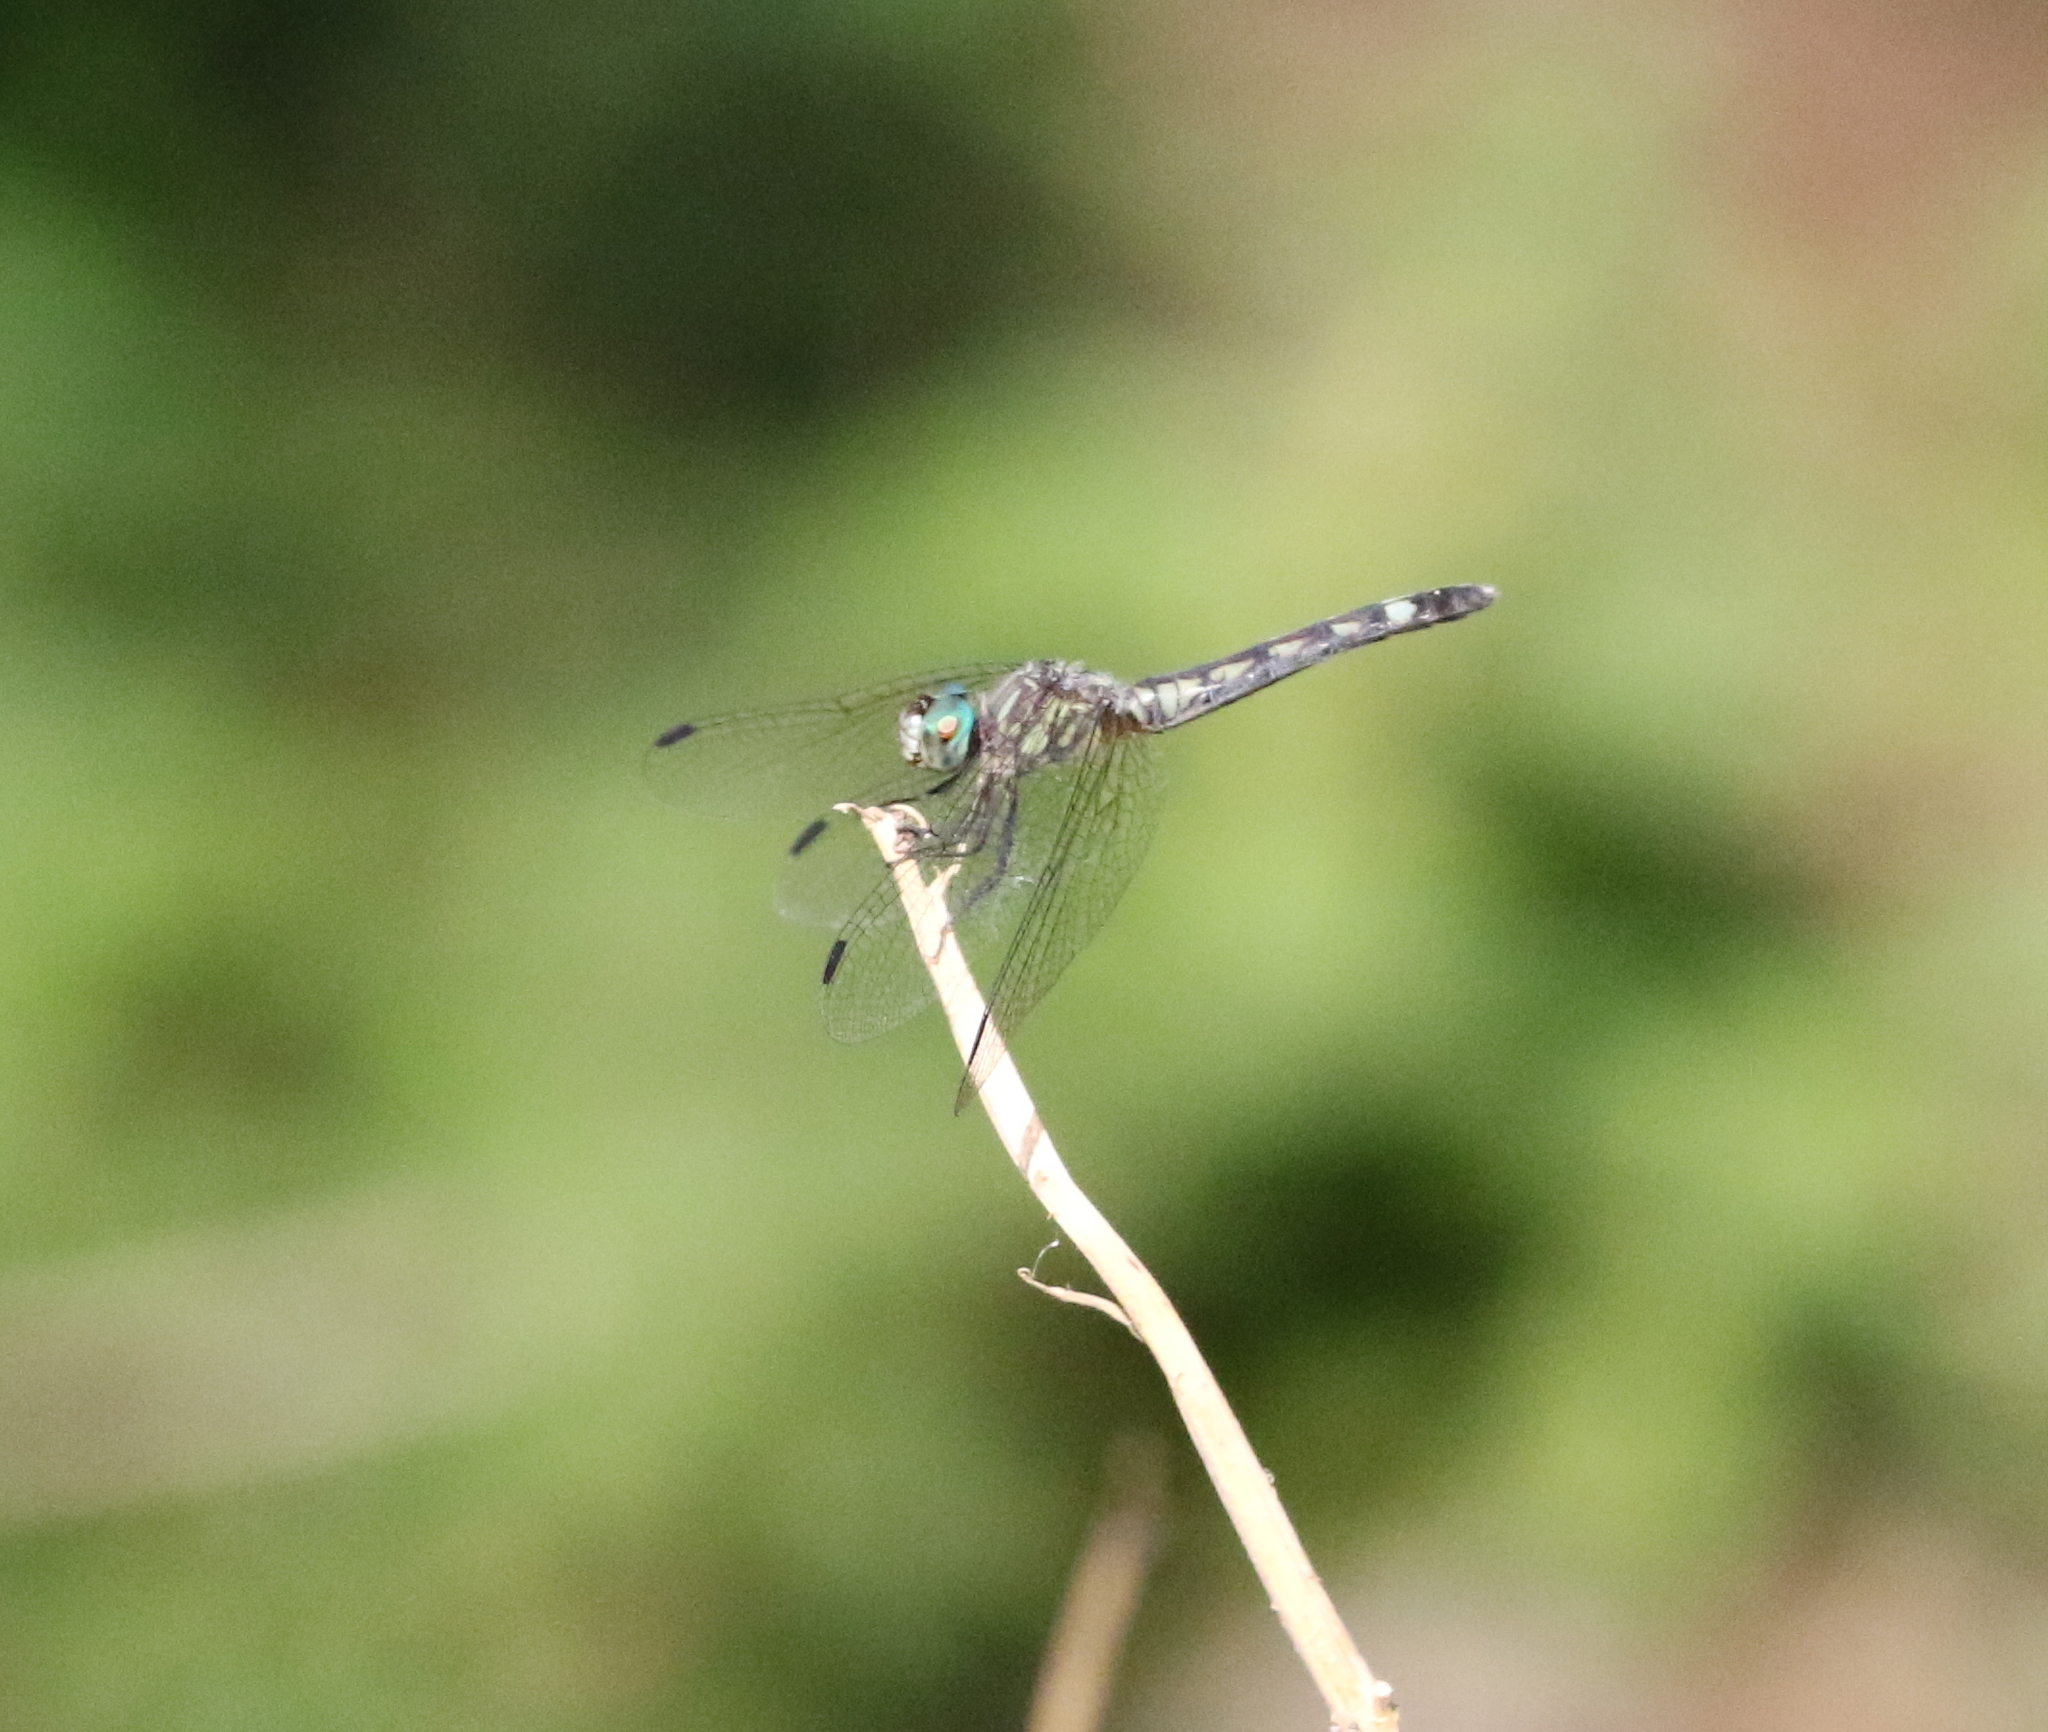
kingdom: Animalia
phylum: Arthropoda
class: Insecta
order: Odonata
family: Libellulidae
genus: Micrathyria
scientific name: Micrathyria hagenii
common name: Thornbush dasher
